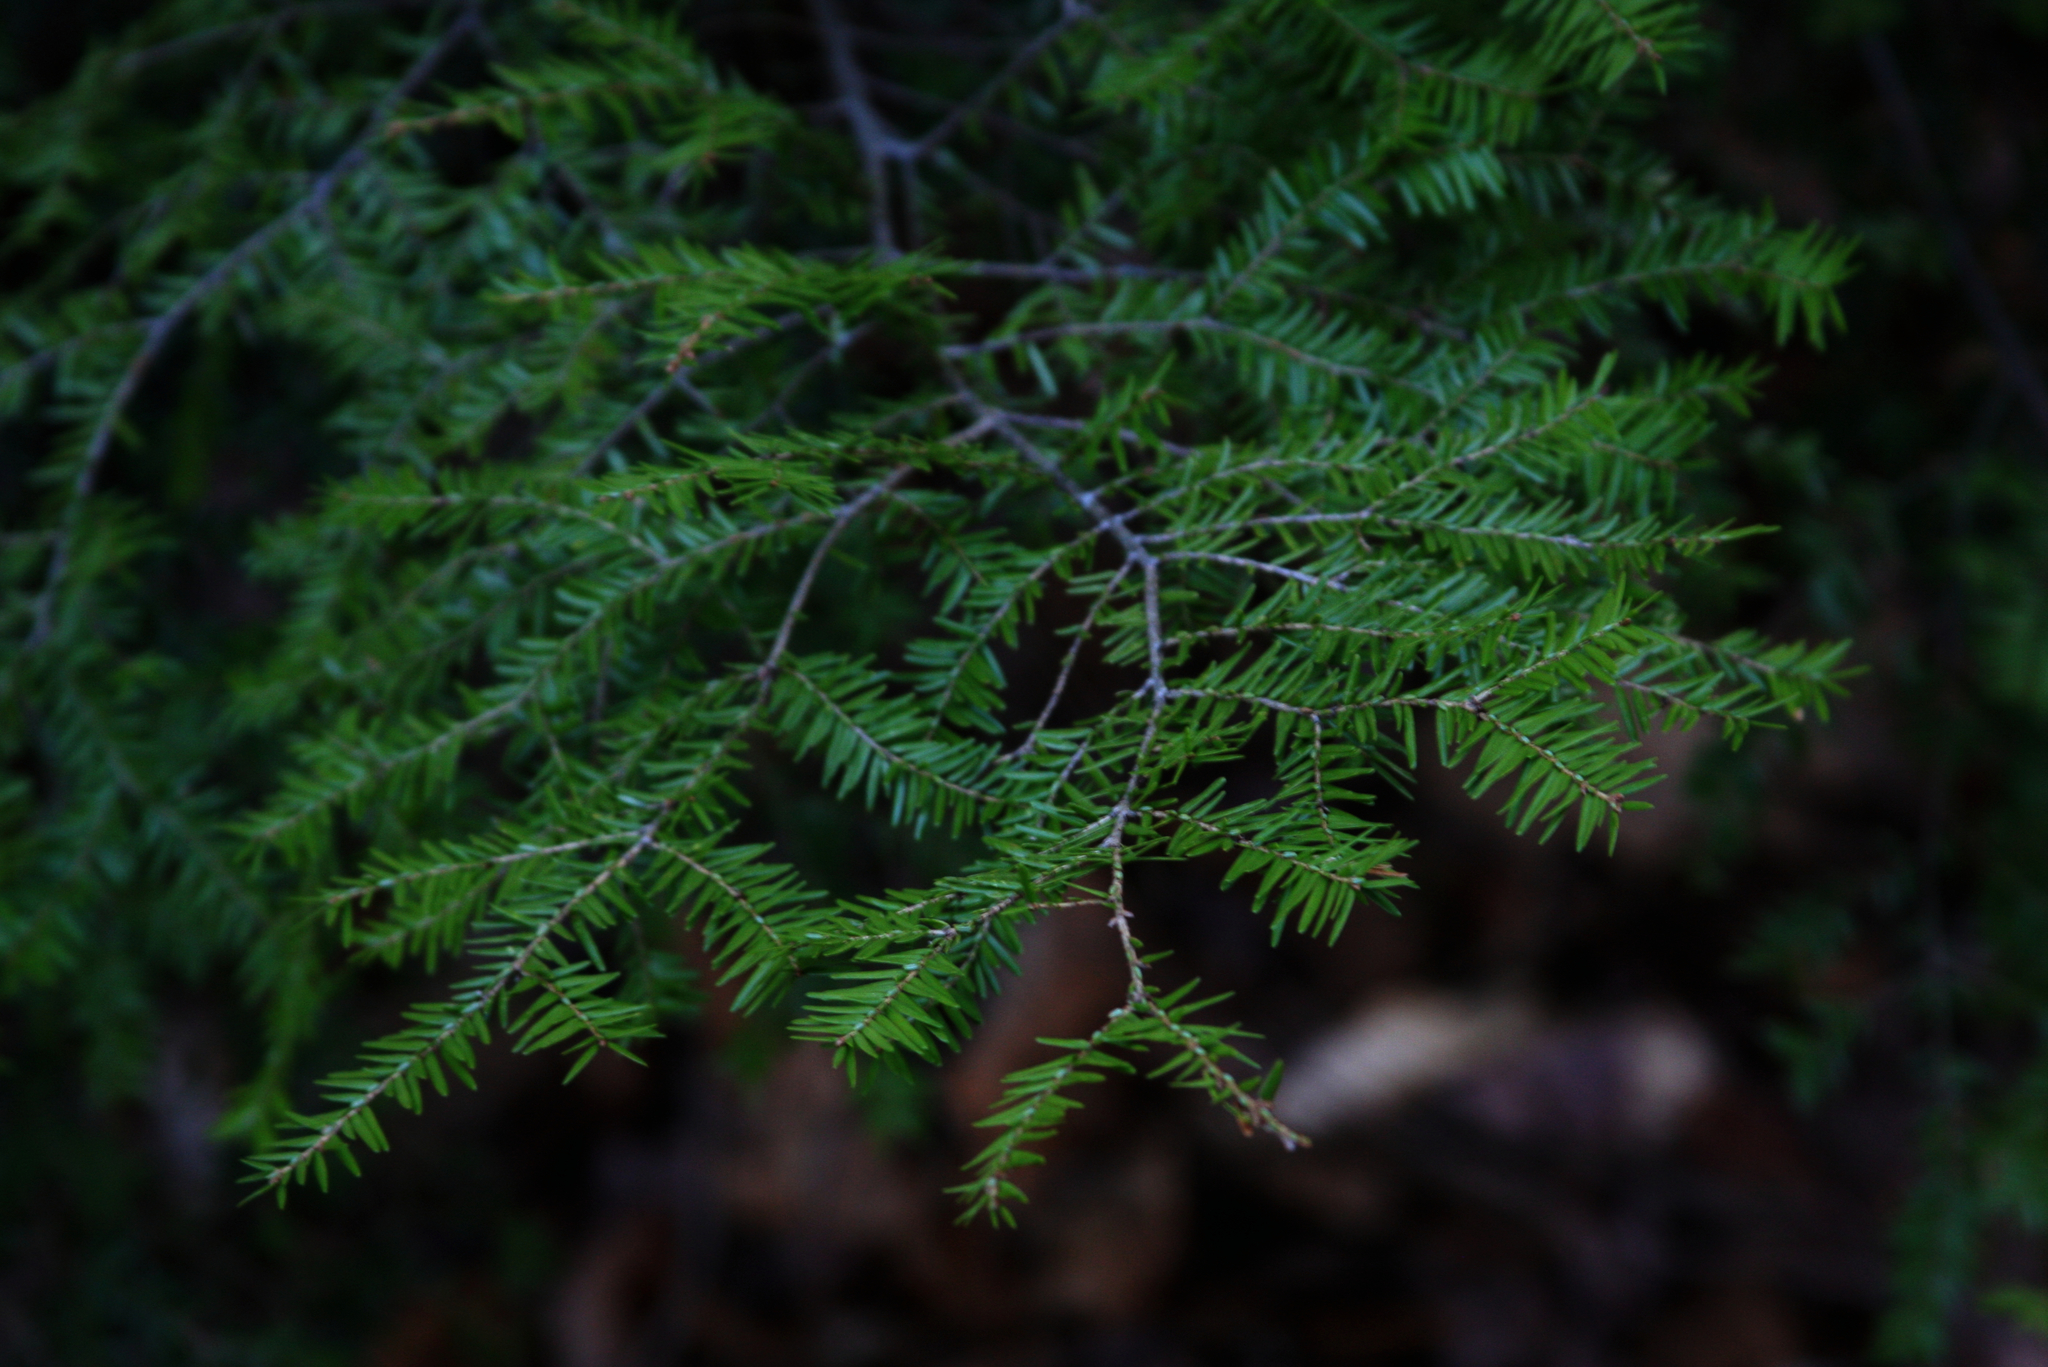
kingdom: Plantae
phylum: Tracheophyta
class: Pinopsida
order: Pinales
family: Pinaceae
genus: Tsuga
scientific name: Tsuga canadensis
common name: Eastern hemlock
